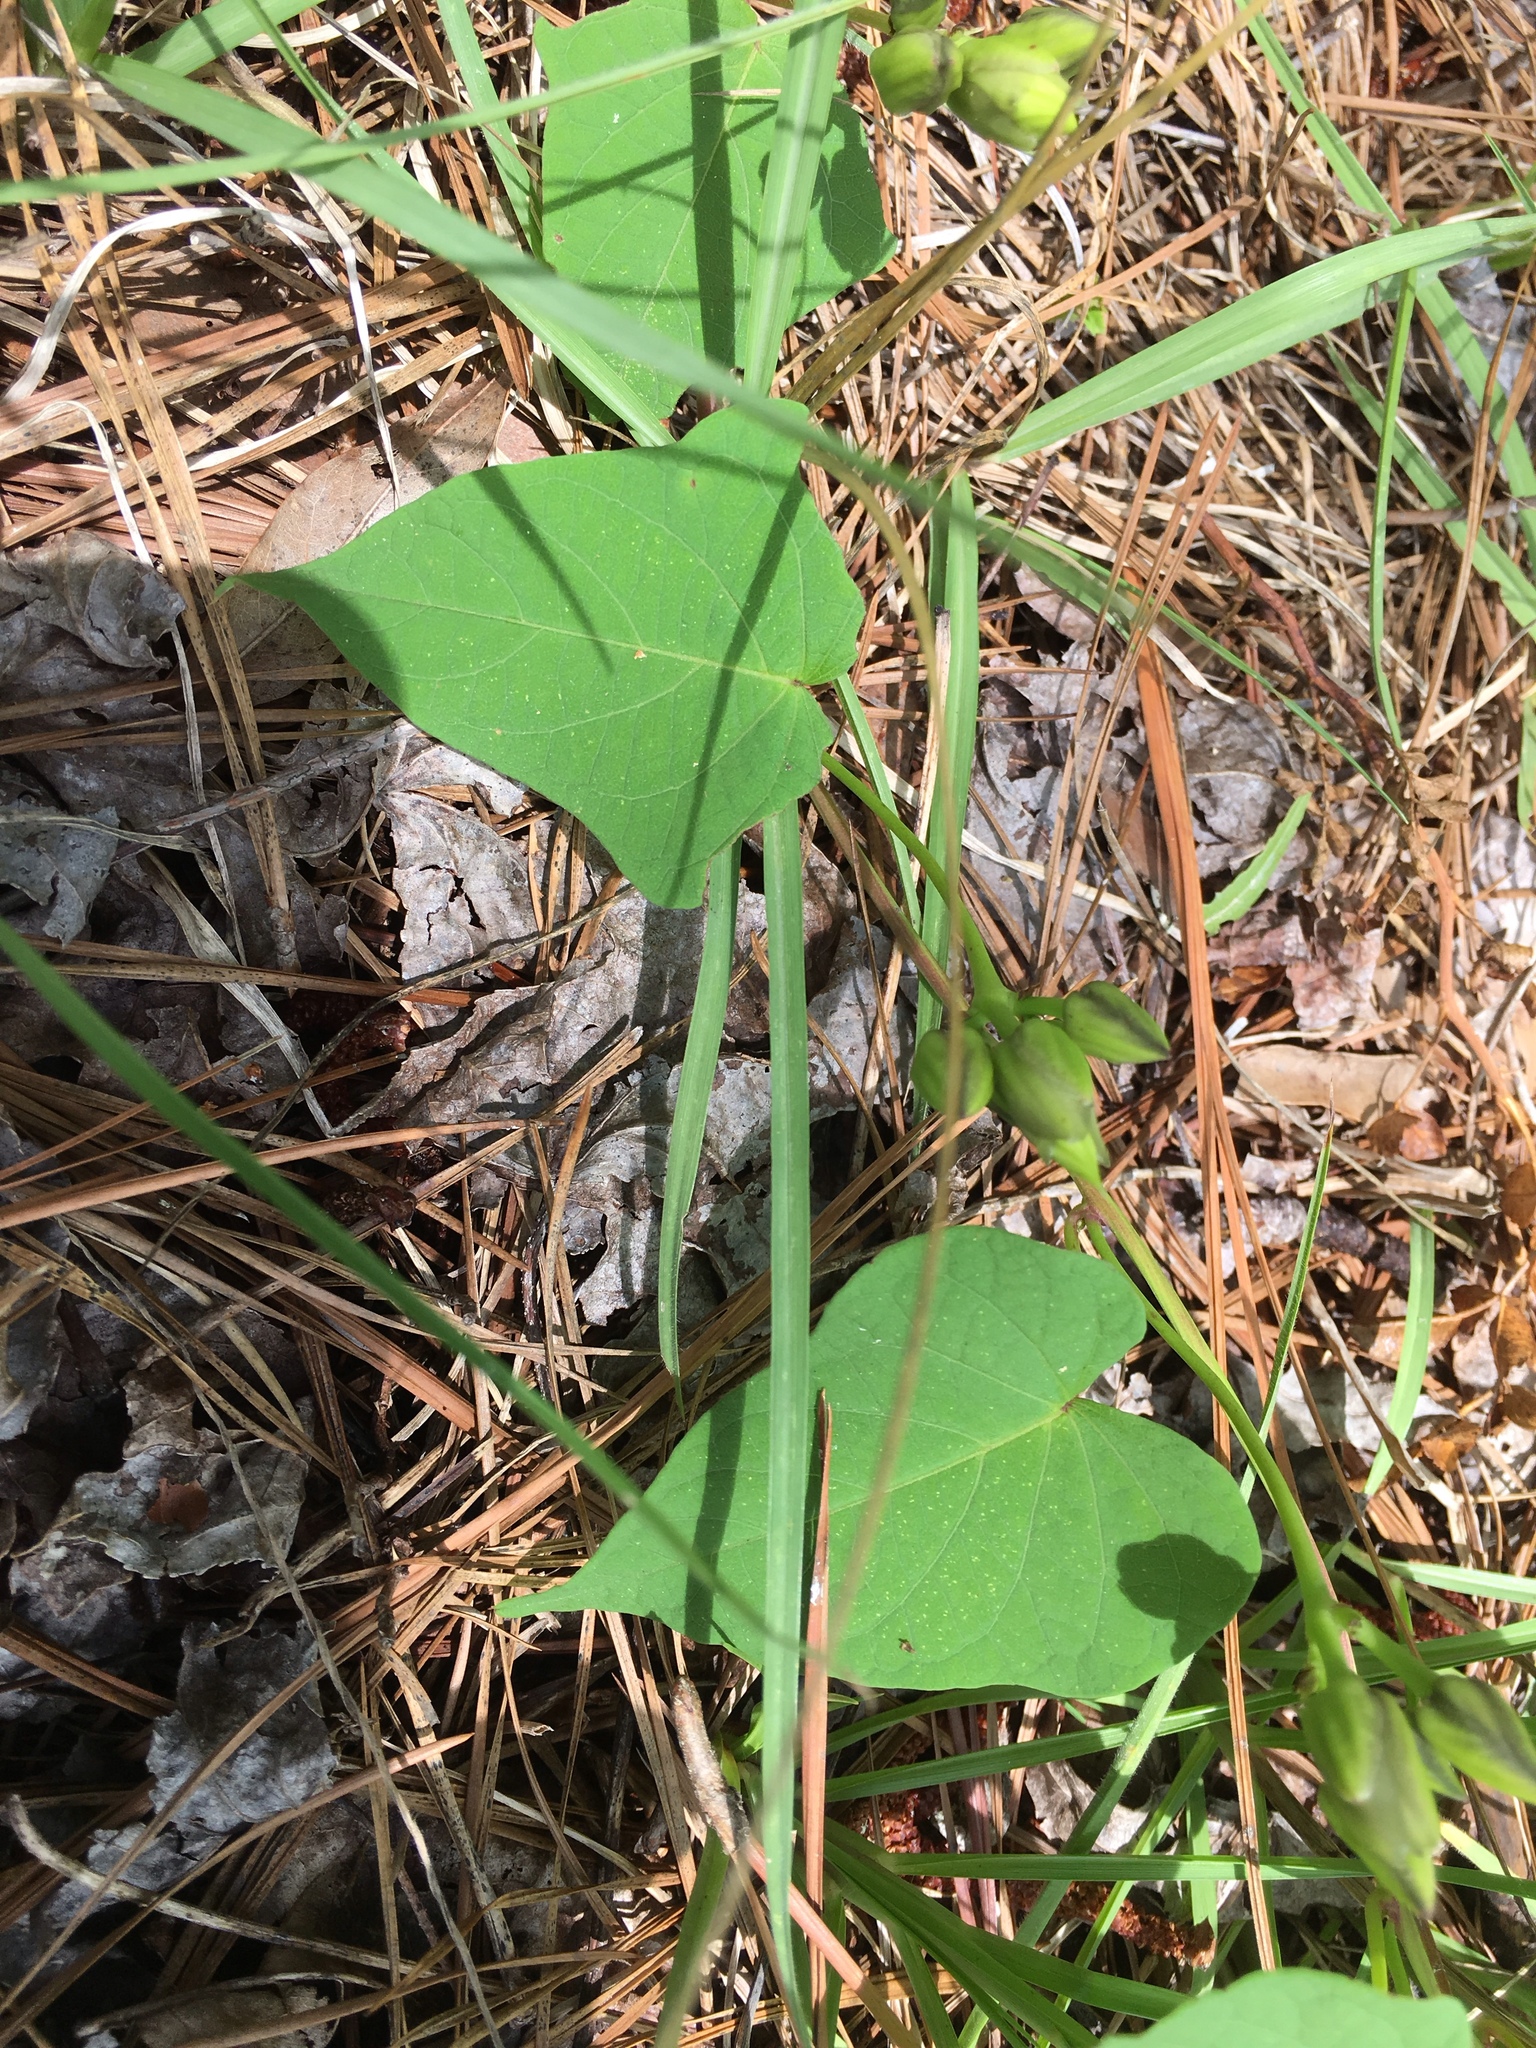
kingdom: Plantae
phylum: Tracheophyta
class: Magnoliopsida
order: Solanales
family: Convolvulaceae
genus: Ipomoea
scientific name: Ipomoea pandurata
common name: Man-of-the-earth
